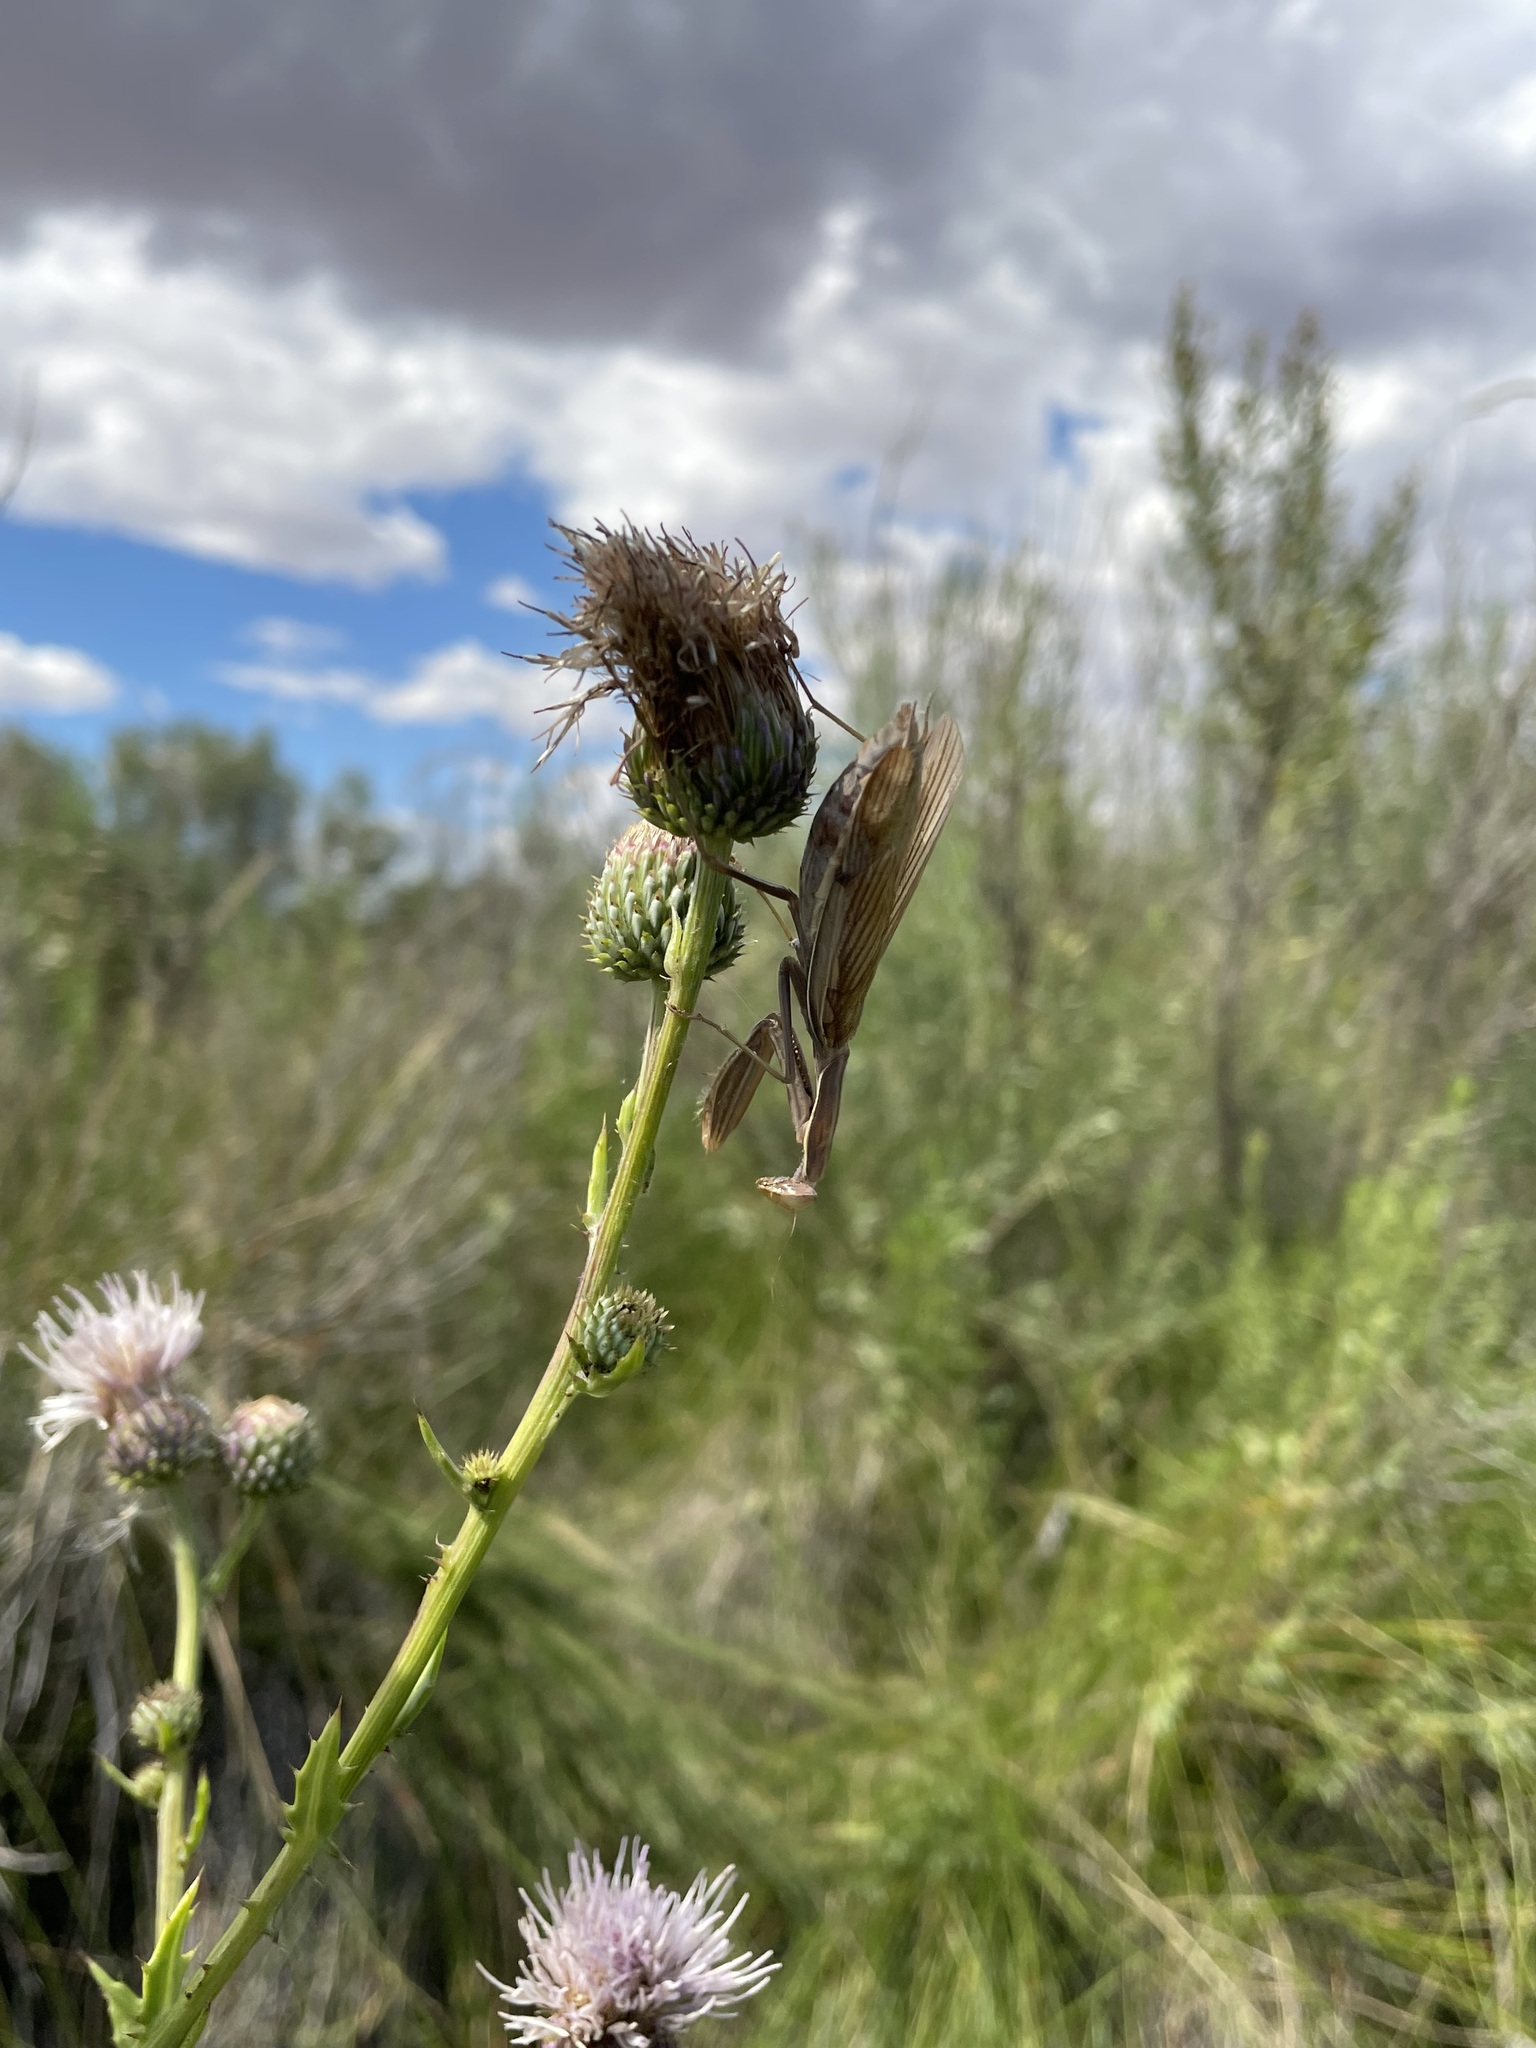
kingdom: Animalia
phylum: Arthropoda
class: Insecta
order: Mantodea
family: Mantidae
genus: Mantis
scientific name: Mantis religiosa
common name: Praying mantis
